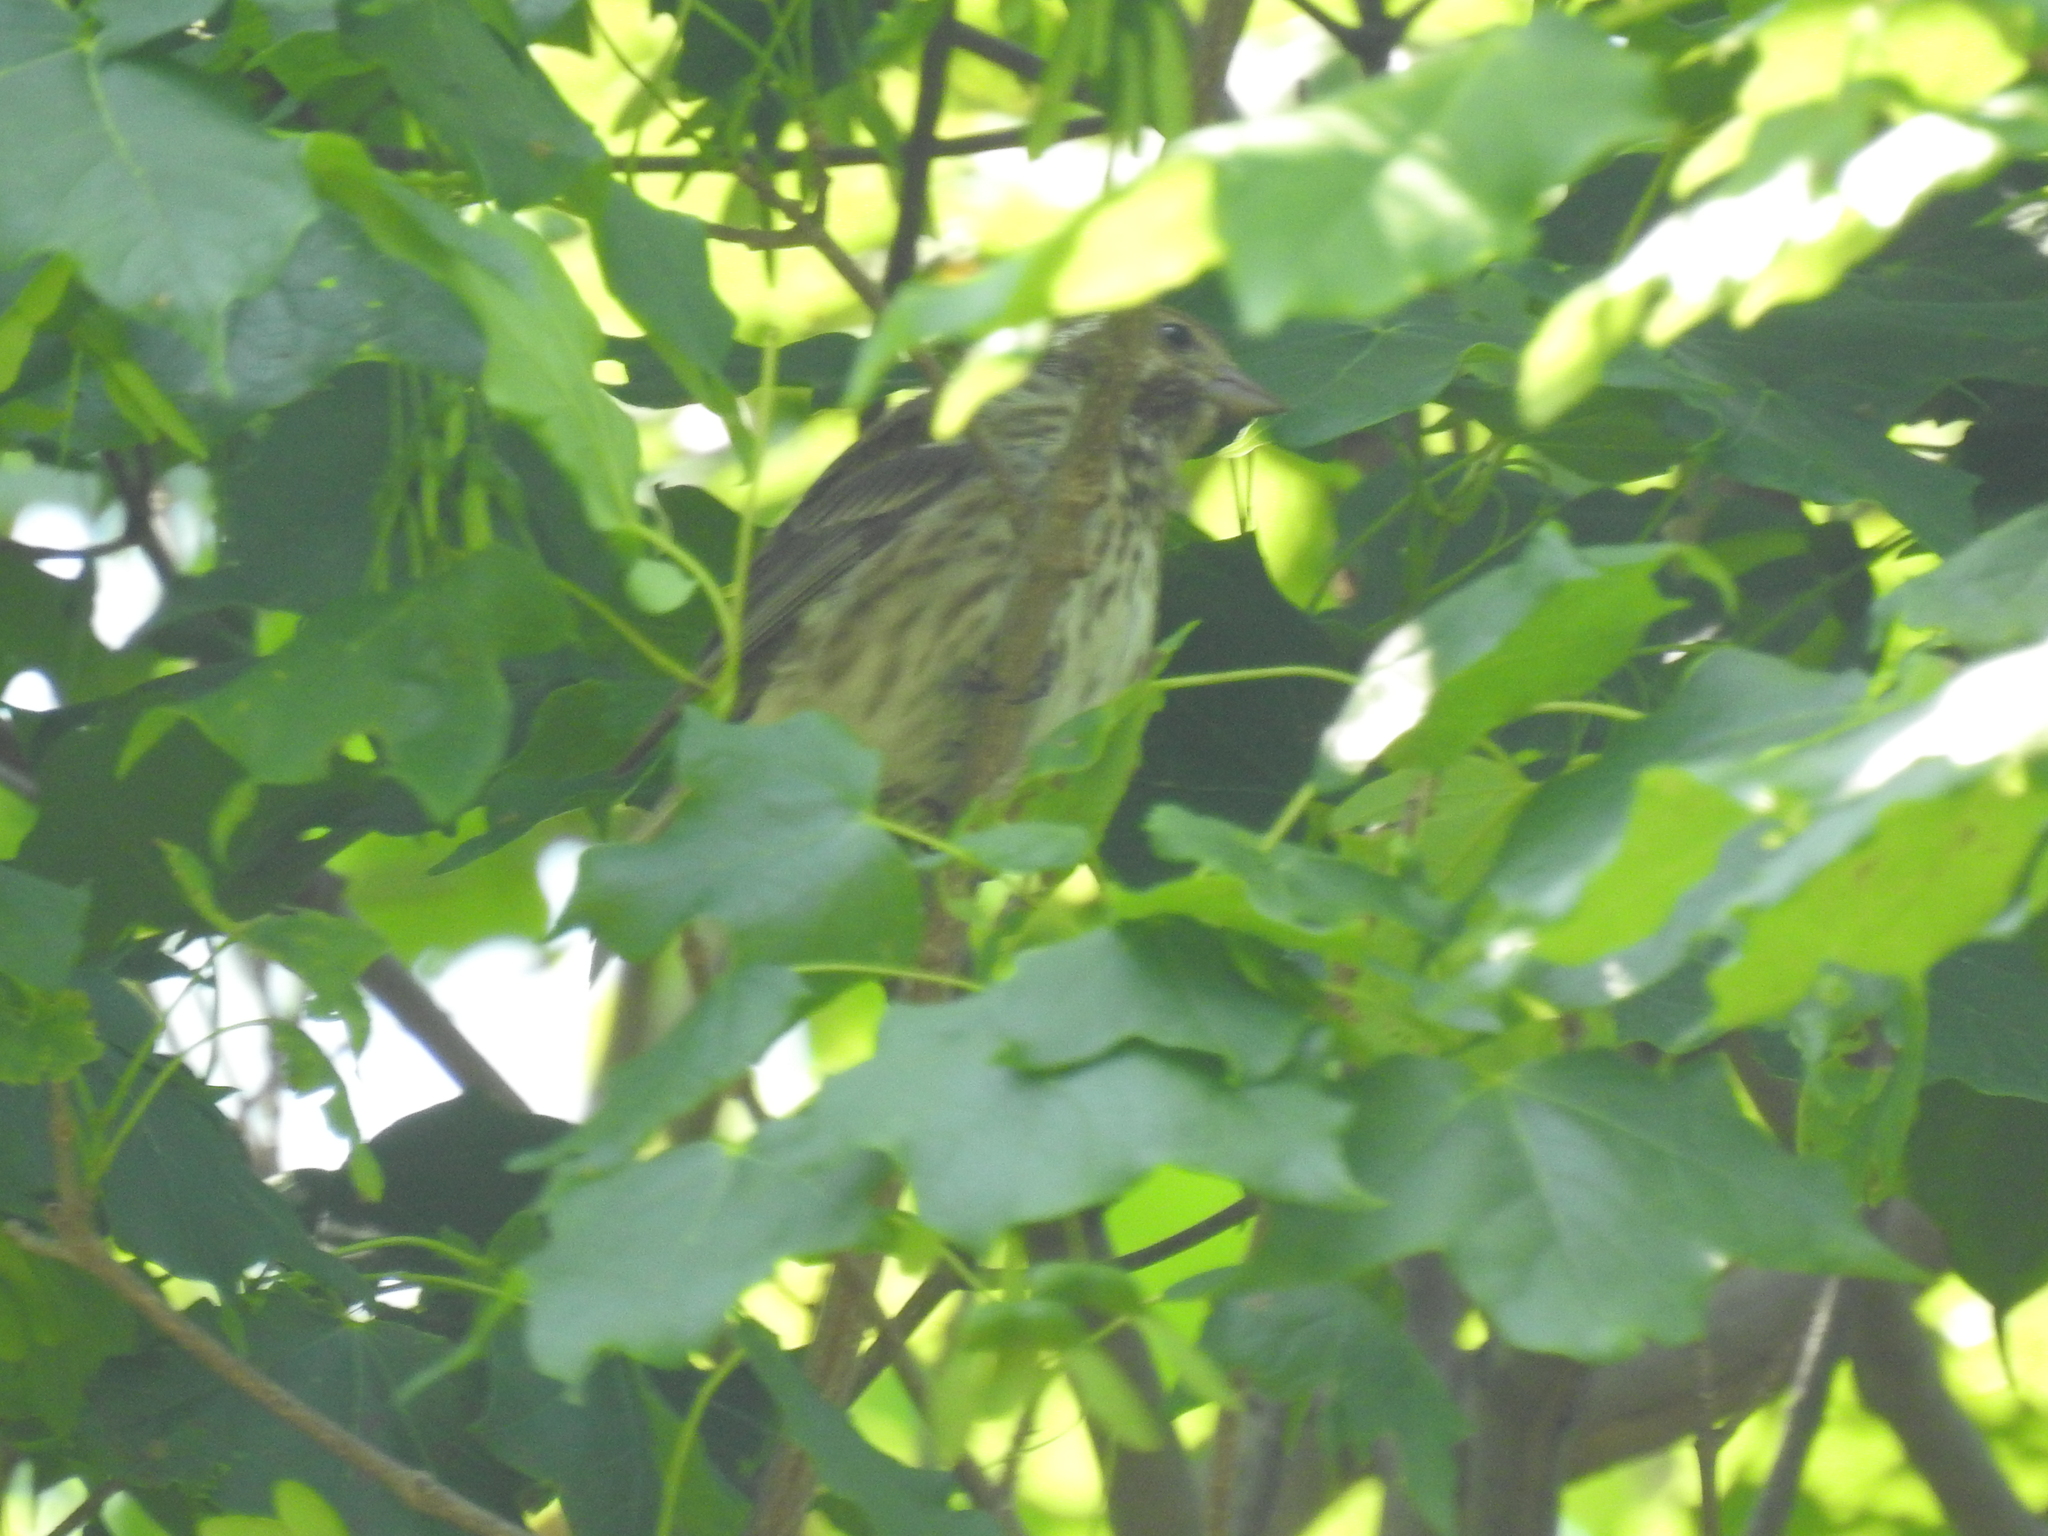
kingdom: Animalia
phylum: Chordata
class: Aves
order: Passeriformes
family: Fringillidae
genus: Haemorhous
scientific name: Haemorhous purpureus
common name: Purple finch
